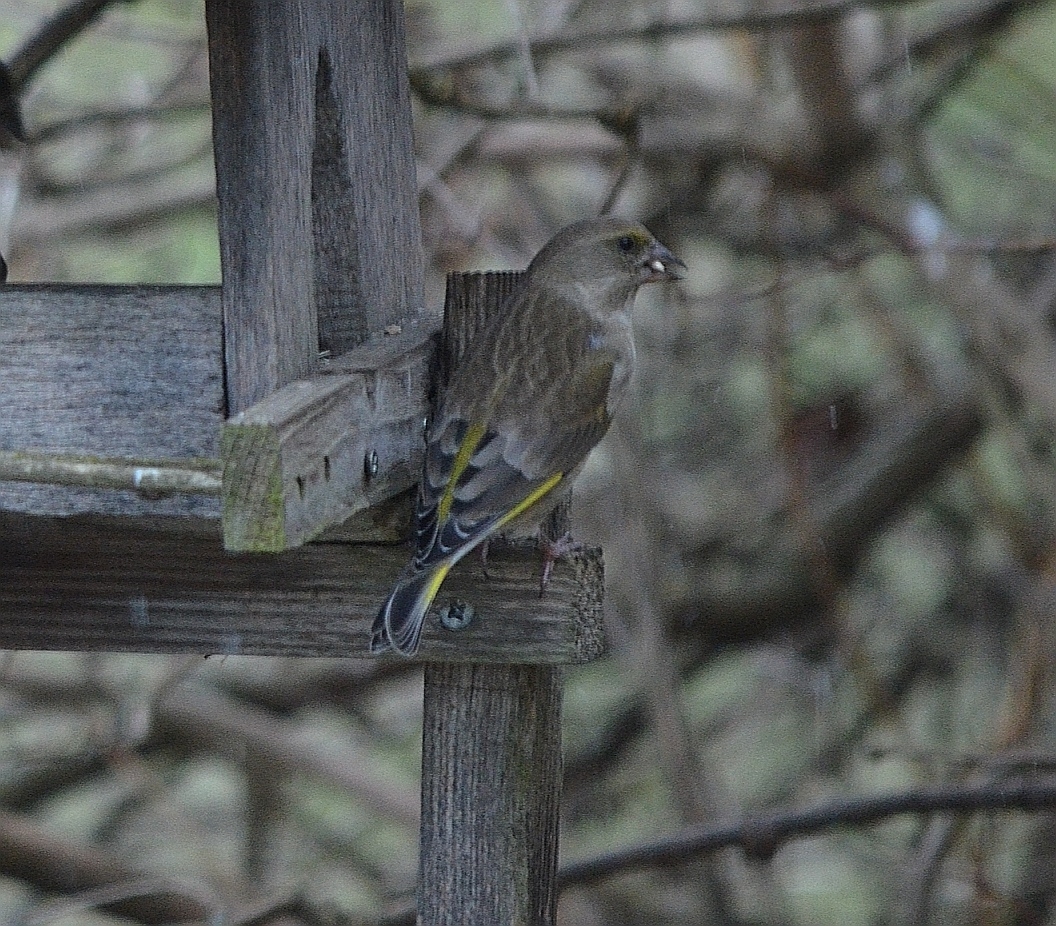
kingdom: Plantae
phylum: Tracheophyta
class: Liliopsida
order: Poales
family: Poaceae
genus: Chloris
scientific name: Chloris chloris
